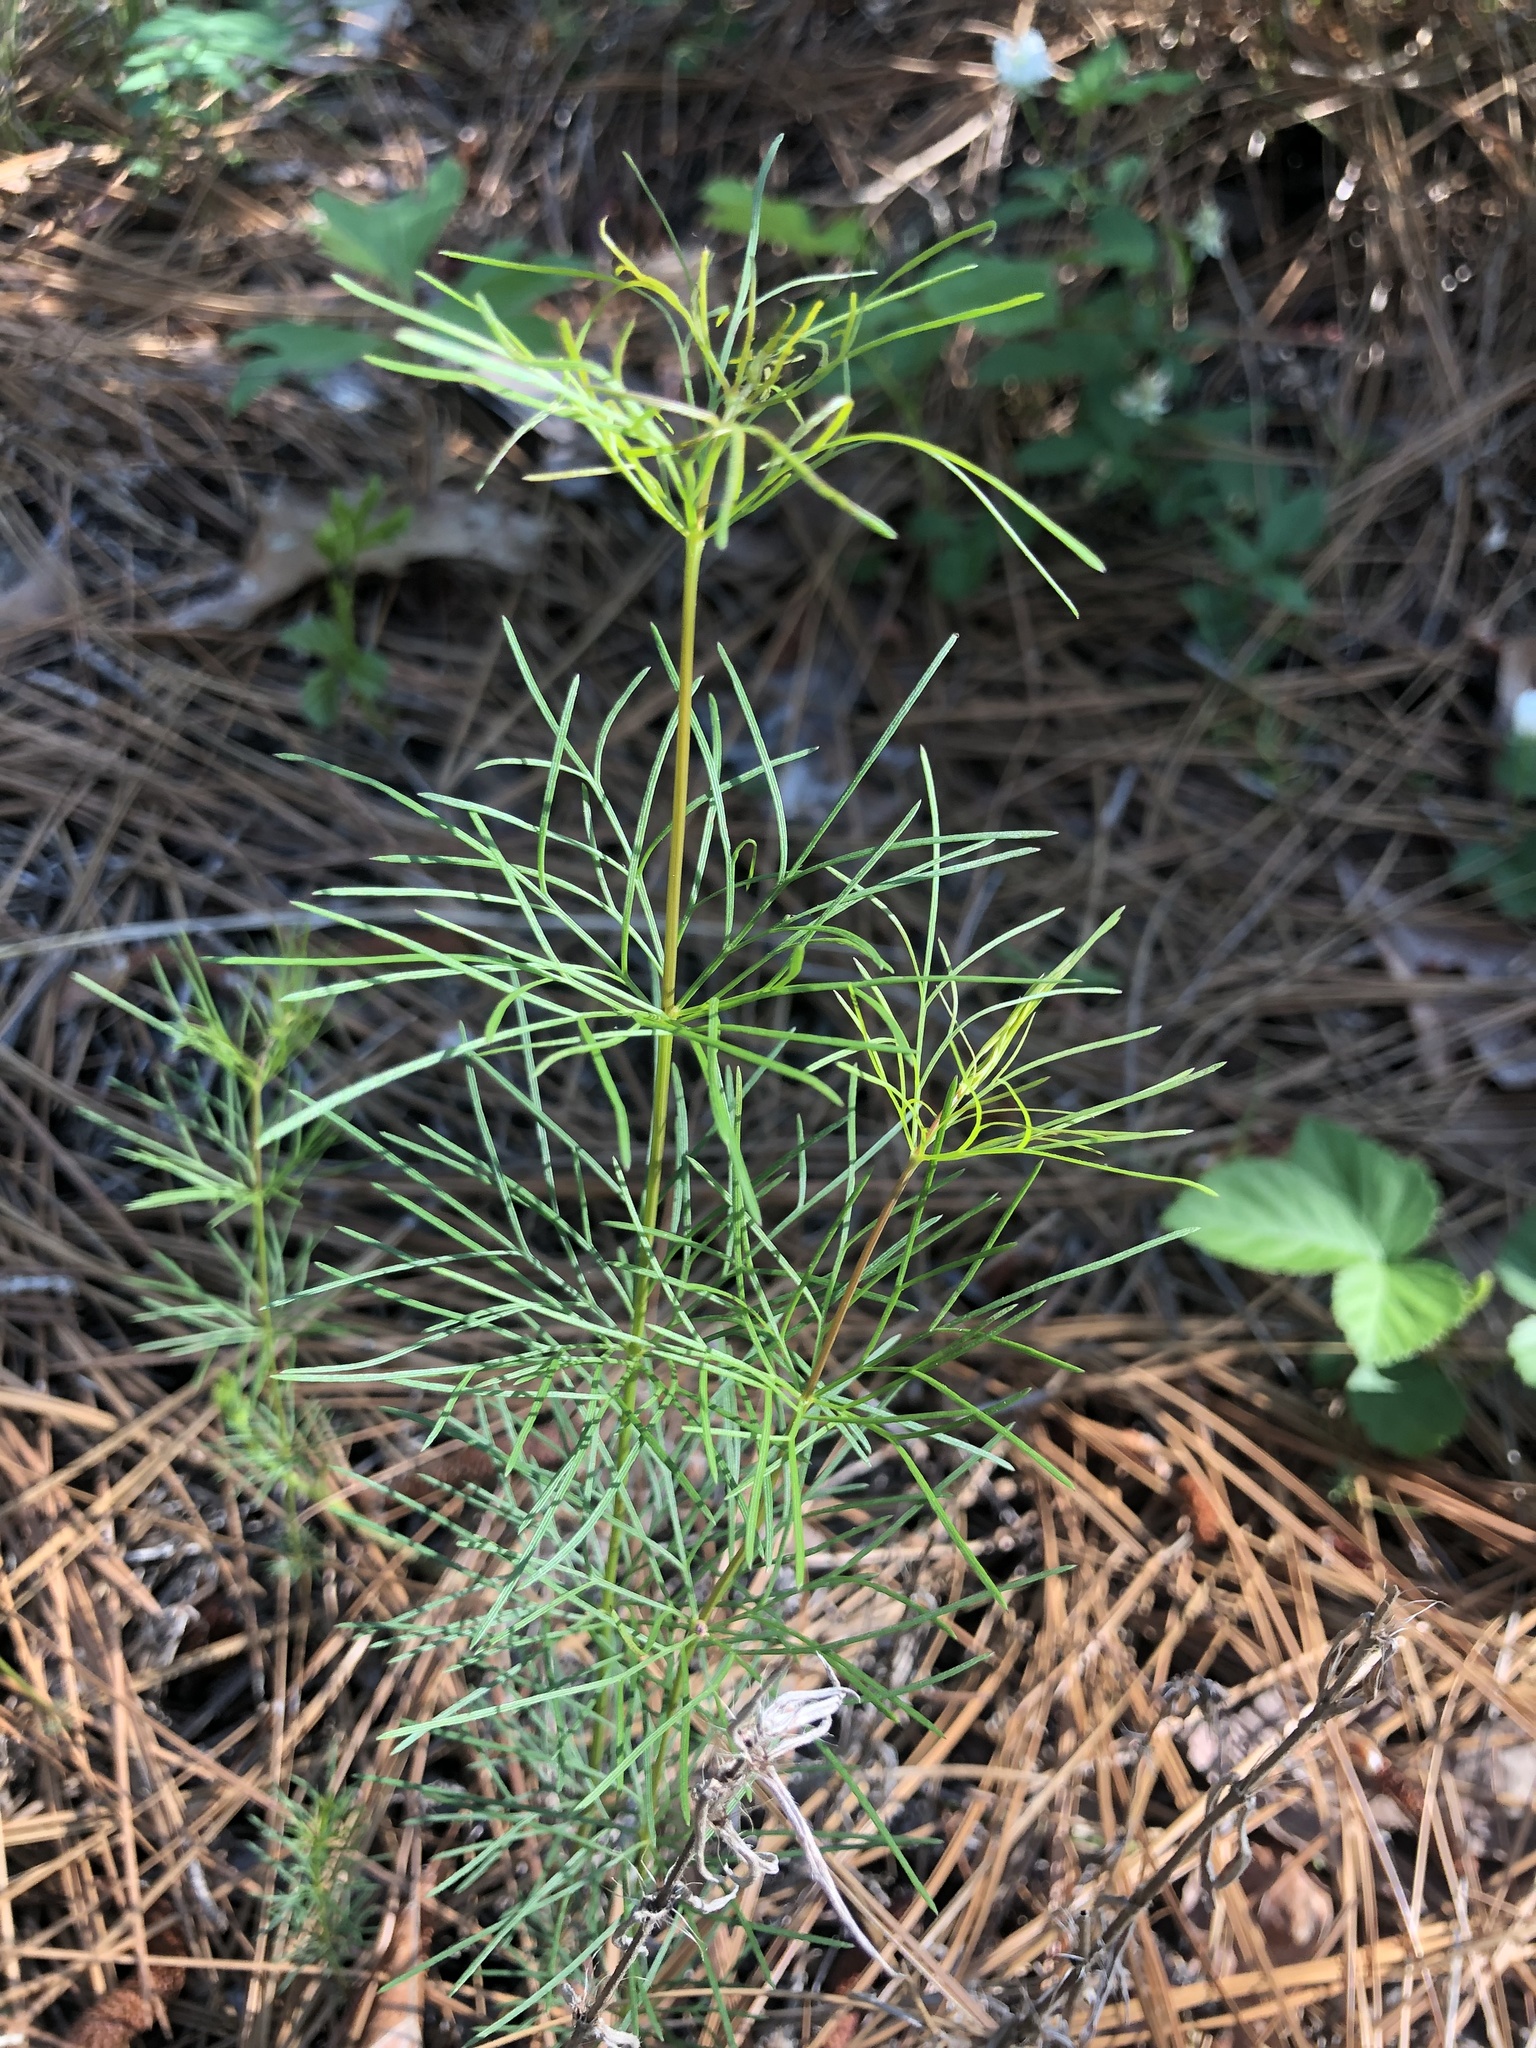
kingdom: Plantae
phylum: Tracheophyta
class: Magnoliopsida
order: Asterales
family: Asteraceae
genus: Coreopsis
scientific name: Coreopsis verticillata
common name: Whorled tickseed
